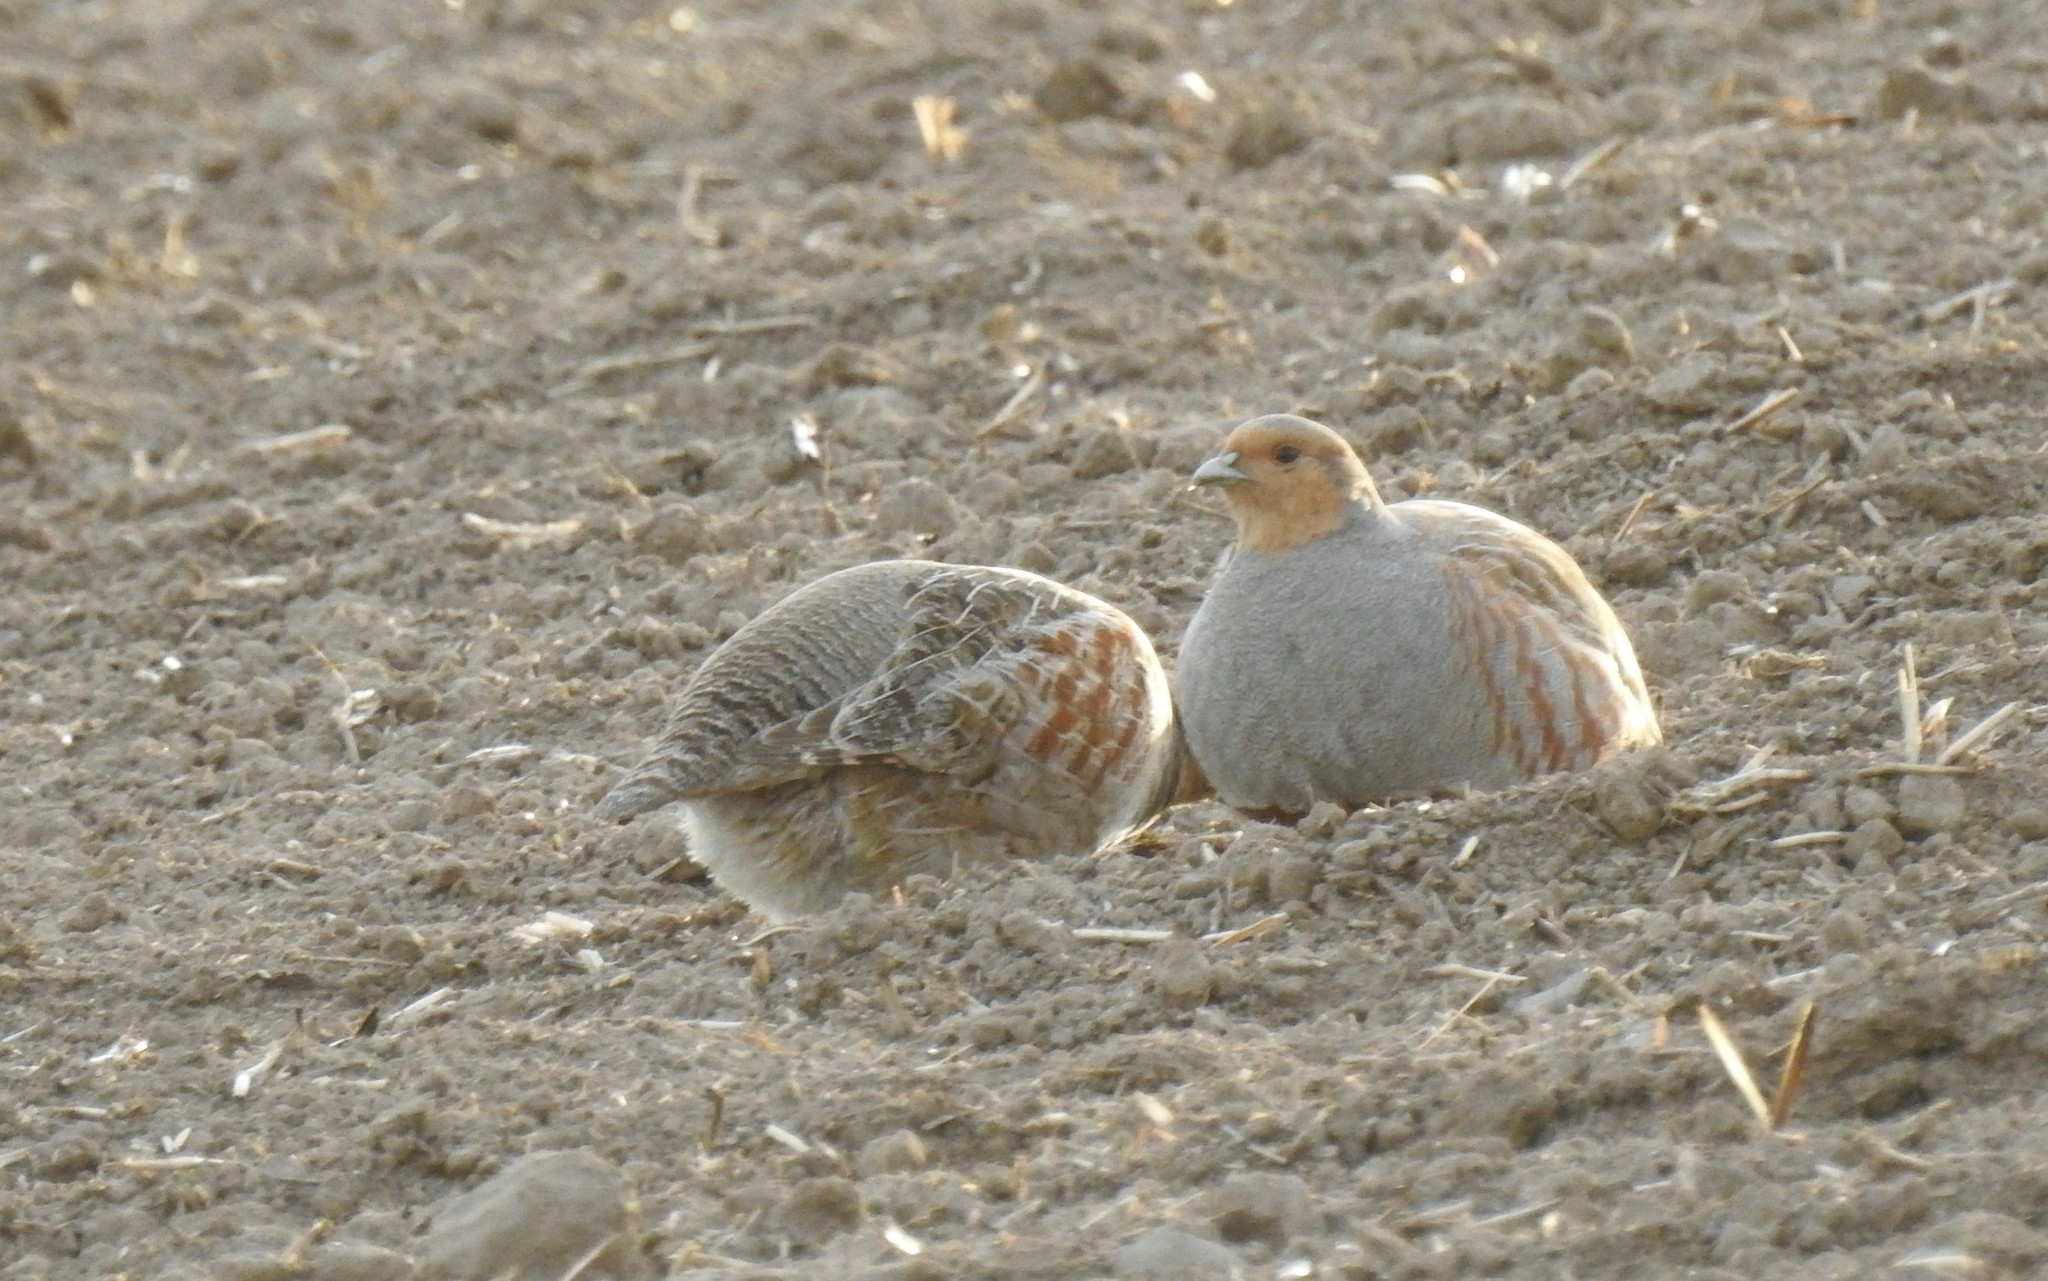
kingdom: Animalia
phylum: Chordata
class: Aves
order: Galliformes
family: Phasianidae
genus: Perdix
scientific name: Perdix perdix
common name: Grey partridge
